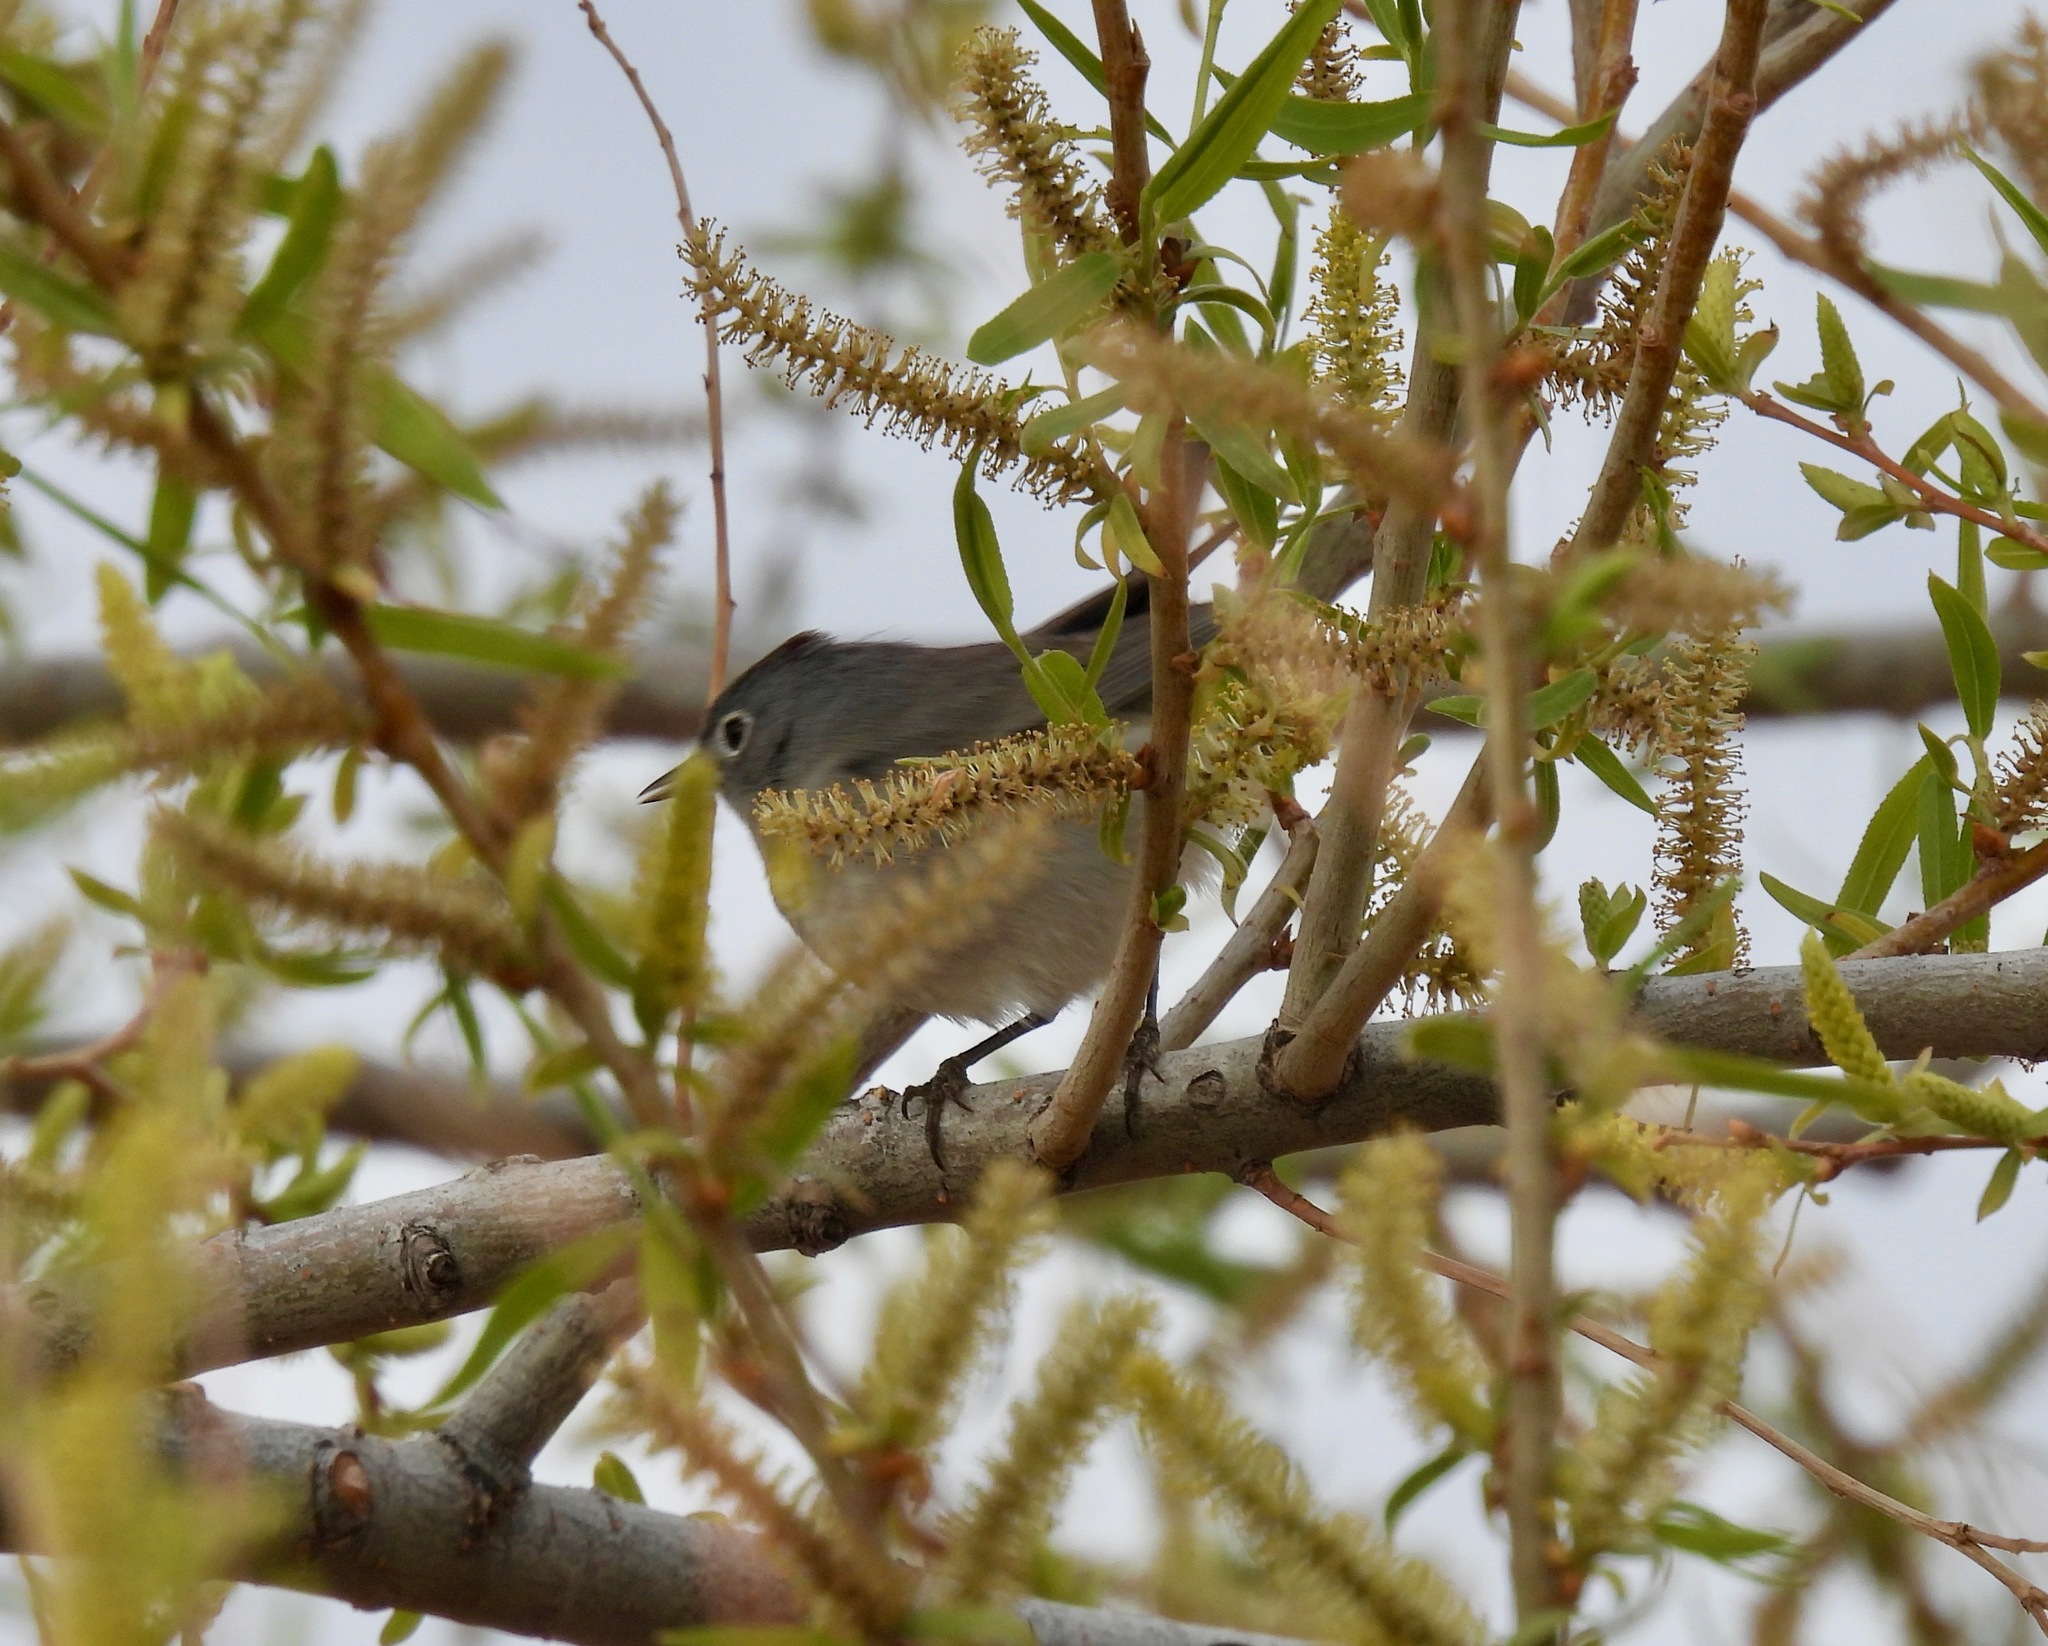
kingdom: Animalia
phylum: Chordata
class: Aves
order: Passeriformes
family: Parulidae
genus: Leiothlypis
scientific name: Leiothlypis virginiae
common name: Virginia's warbler
